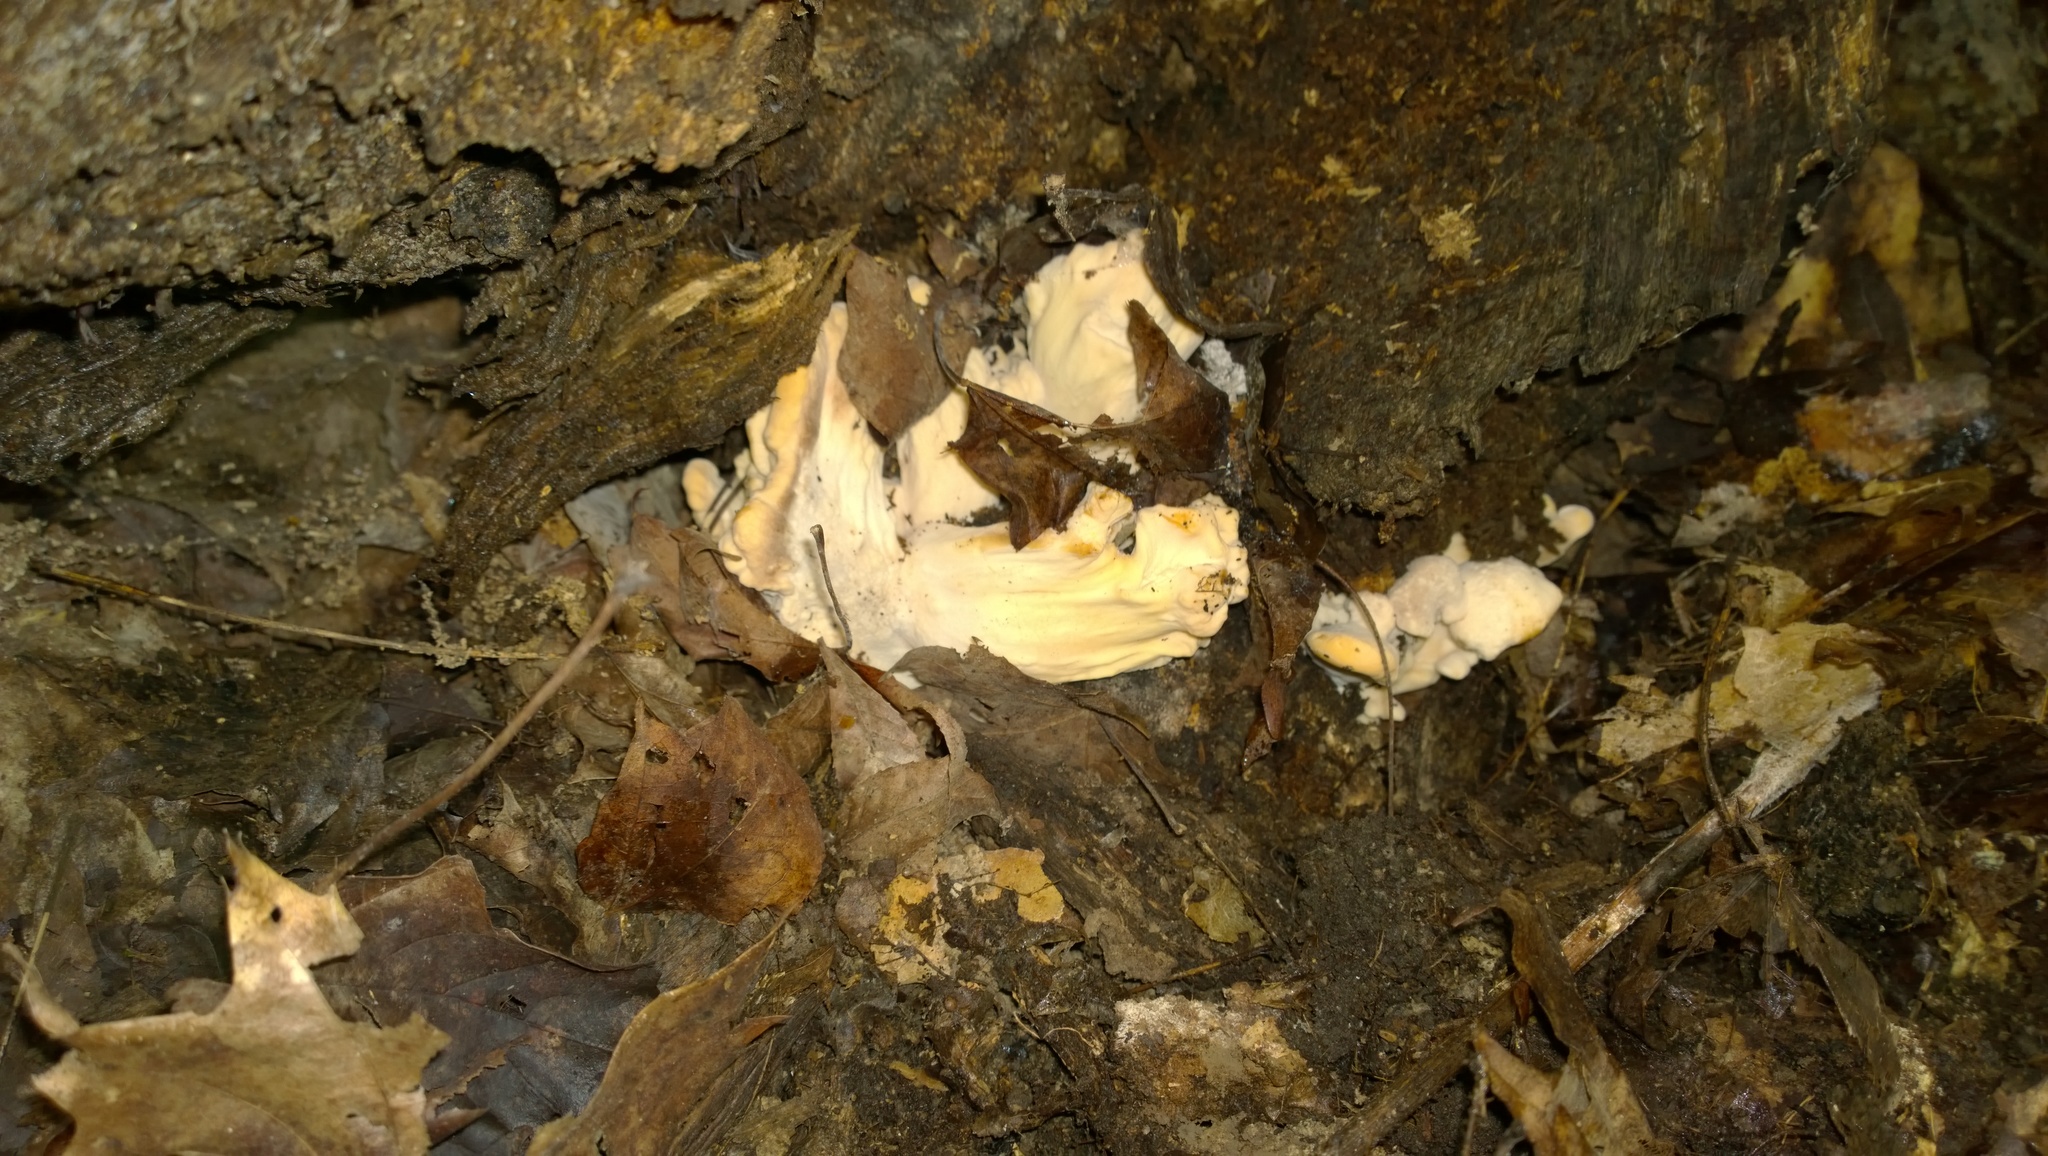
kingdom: Fungi
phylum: Basidiomycota
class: Agaricomycetes
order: Polyporales
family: Meripilaceae
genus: Meripilus
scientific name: Meripilus sumstinei
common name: Black-staining polypore
